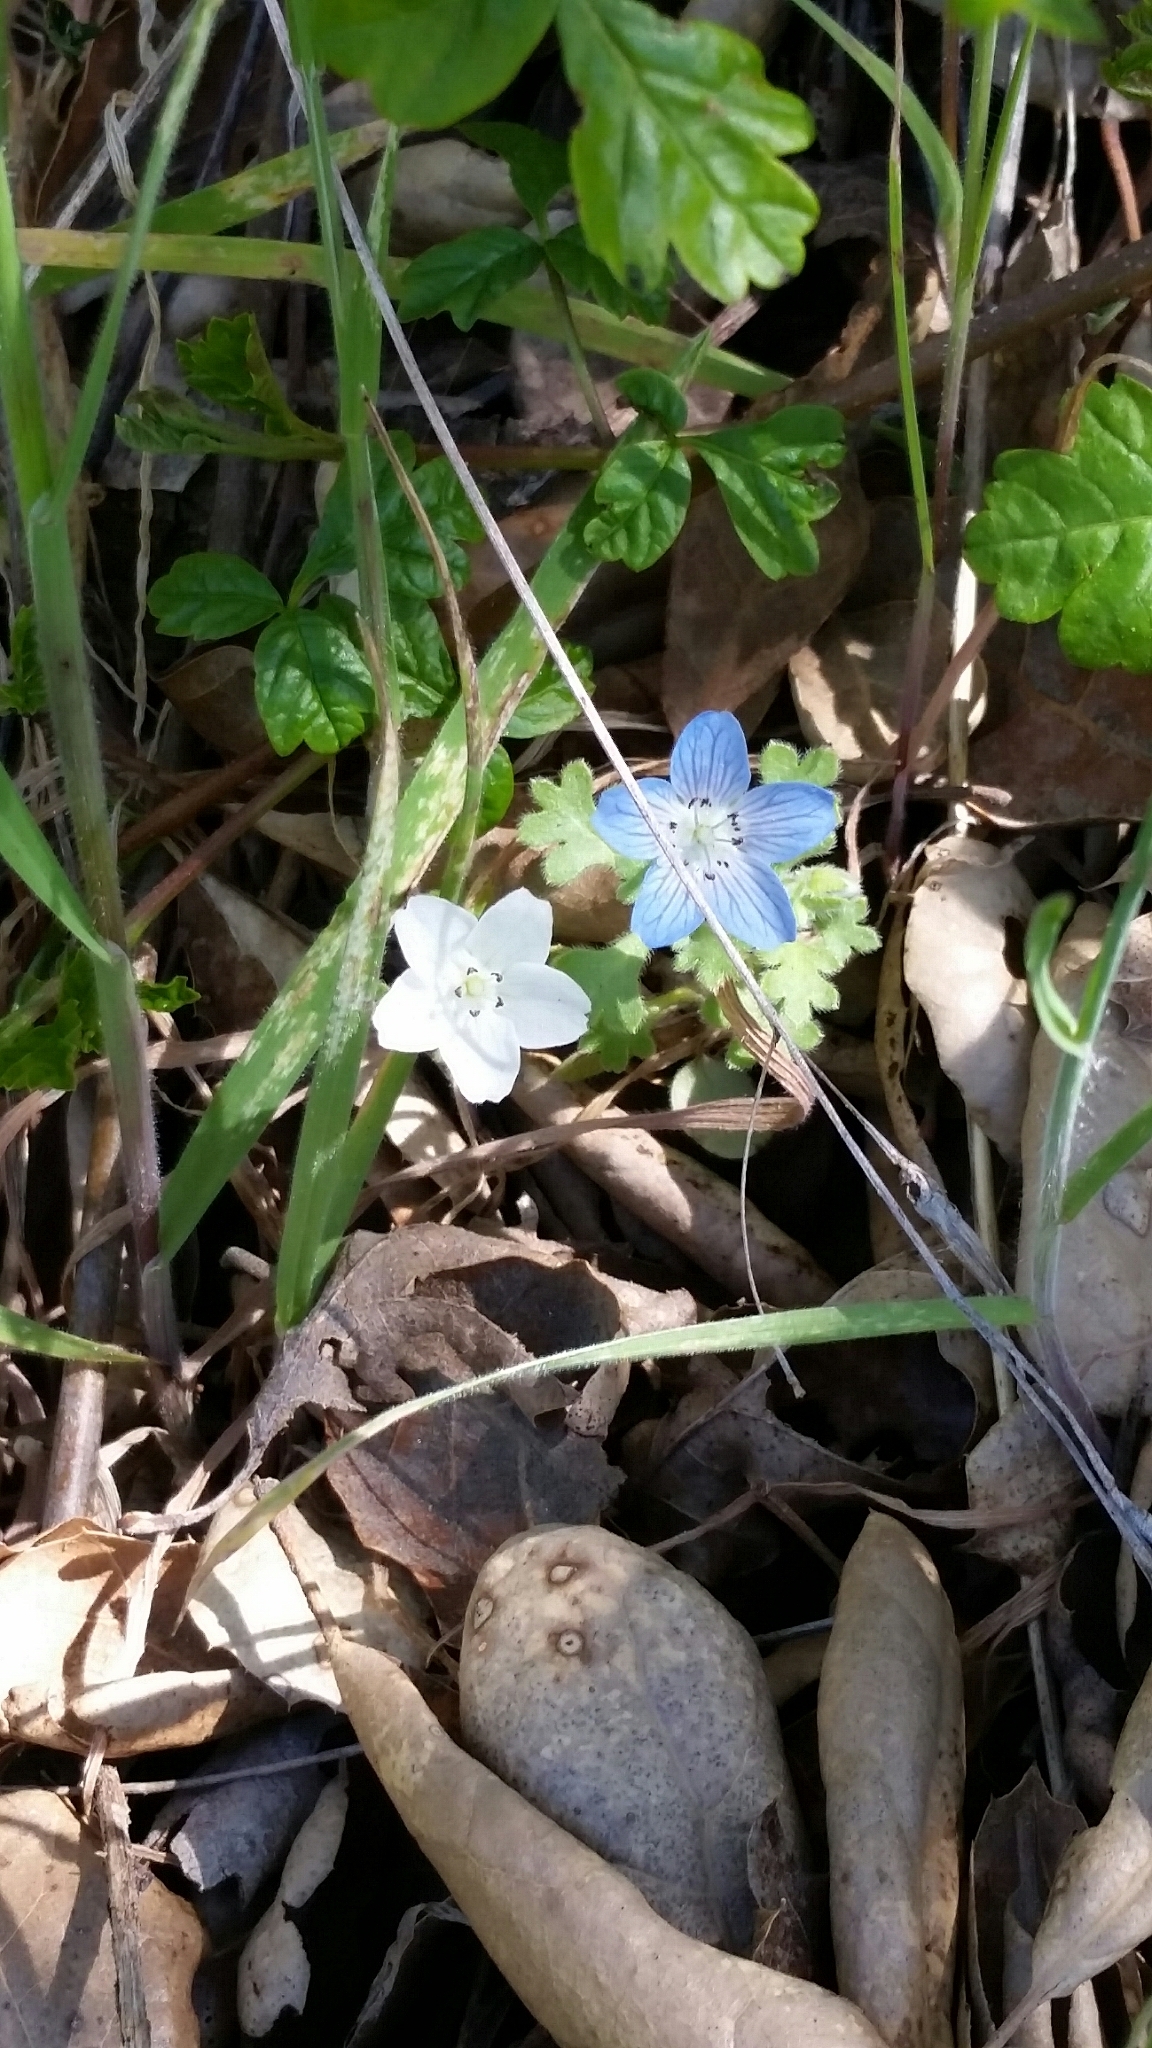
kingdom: Plantae
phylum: Tracheophyta
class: Magnoliopsida
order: Boraginales
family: Hydrophyllaceae
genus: Nemophila
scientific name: Nemophila menziesii
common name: Baby's-blue-eyes
